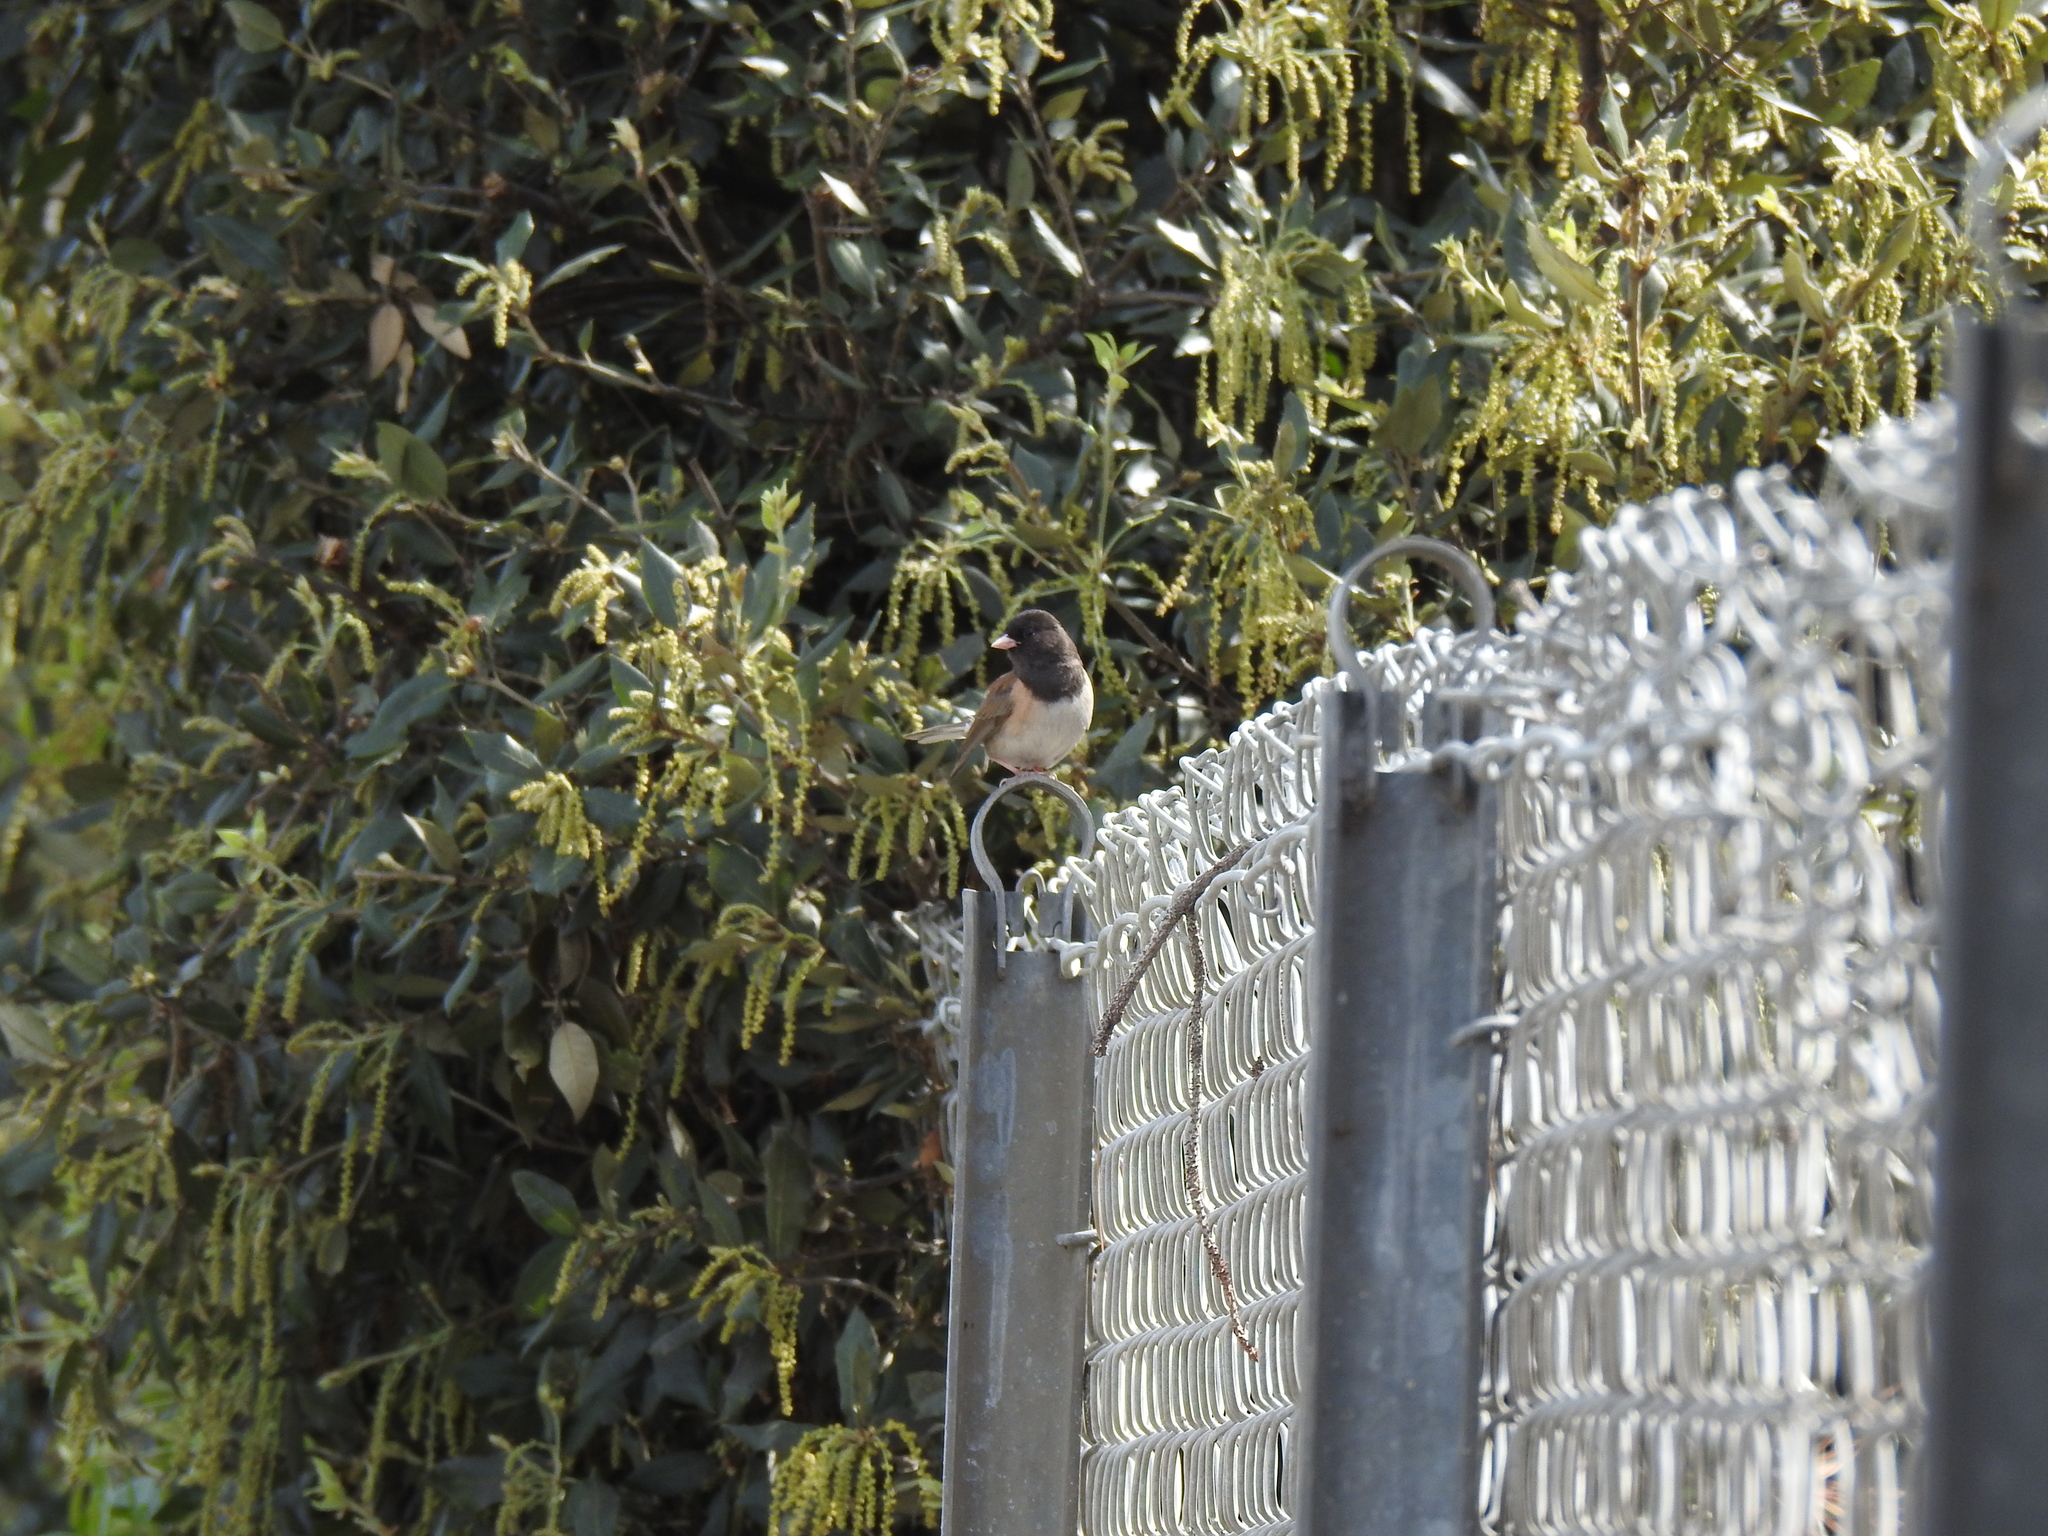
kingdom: Animalia
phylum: Chordata
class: Aves
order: Passeriformes
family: Passerellidae
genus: Junco
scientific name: Junco hyemalis
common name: Dark-eyed junco
